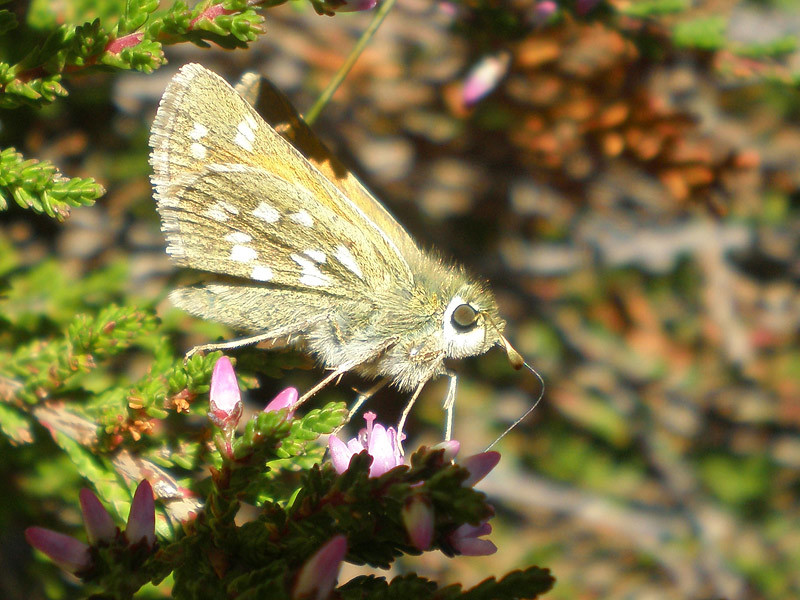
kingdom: Animalia
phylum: Arthropoda
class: Insecta
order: Lepidoptera
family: Hesperiidae
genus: Hesperia
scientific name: Hesperia comma
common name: Common branded skipper
